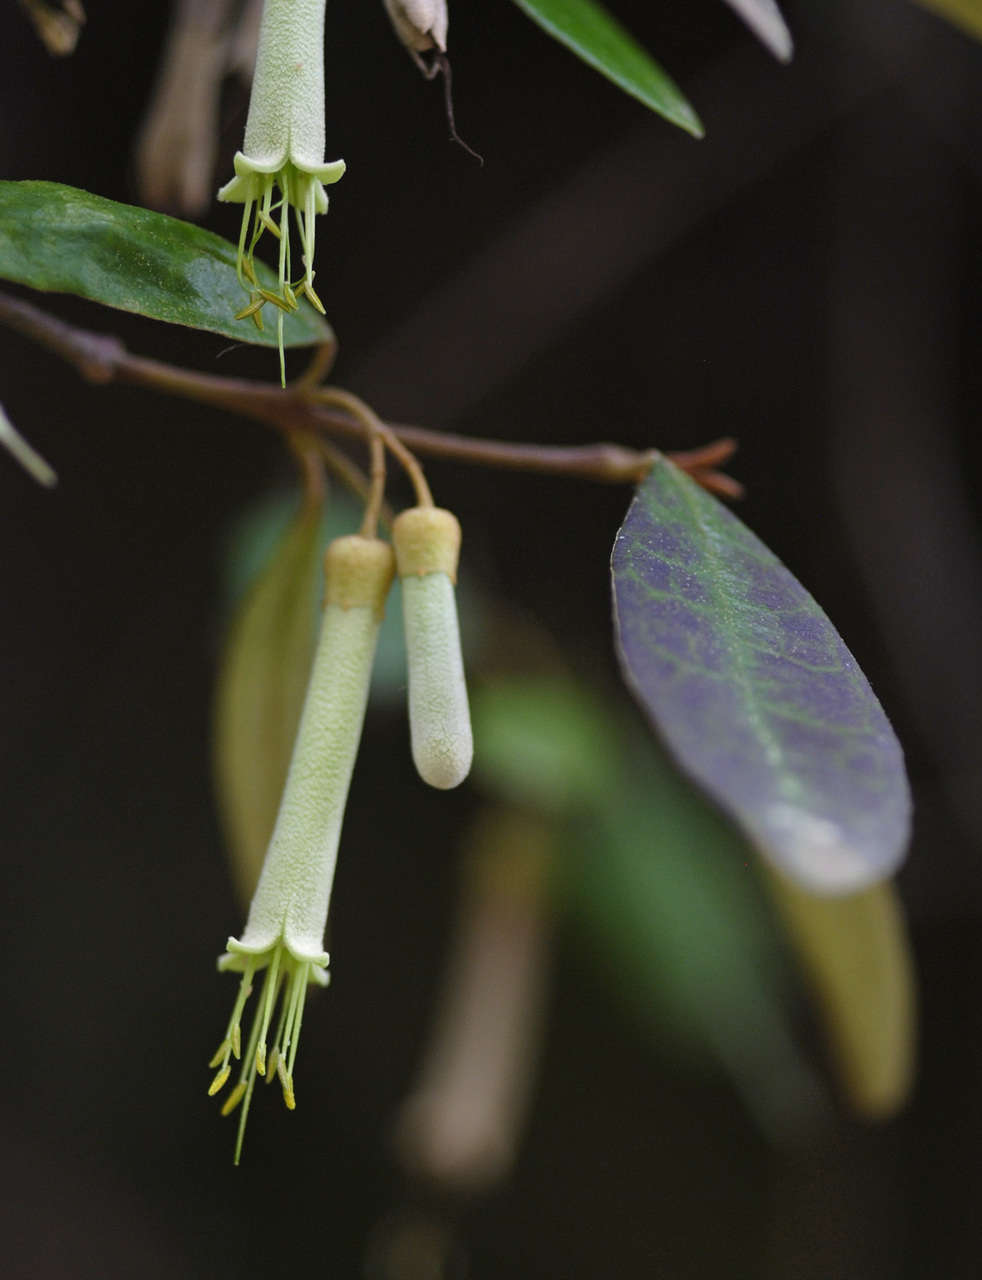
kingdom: Plantae
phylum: Tracheophyta
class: Magnoliopsida
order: Sapindales
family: Rutaceae
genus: Correa
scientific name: Correa lawrenceana
